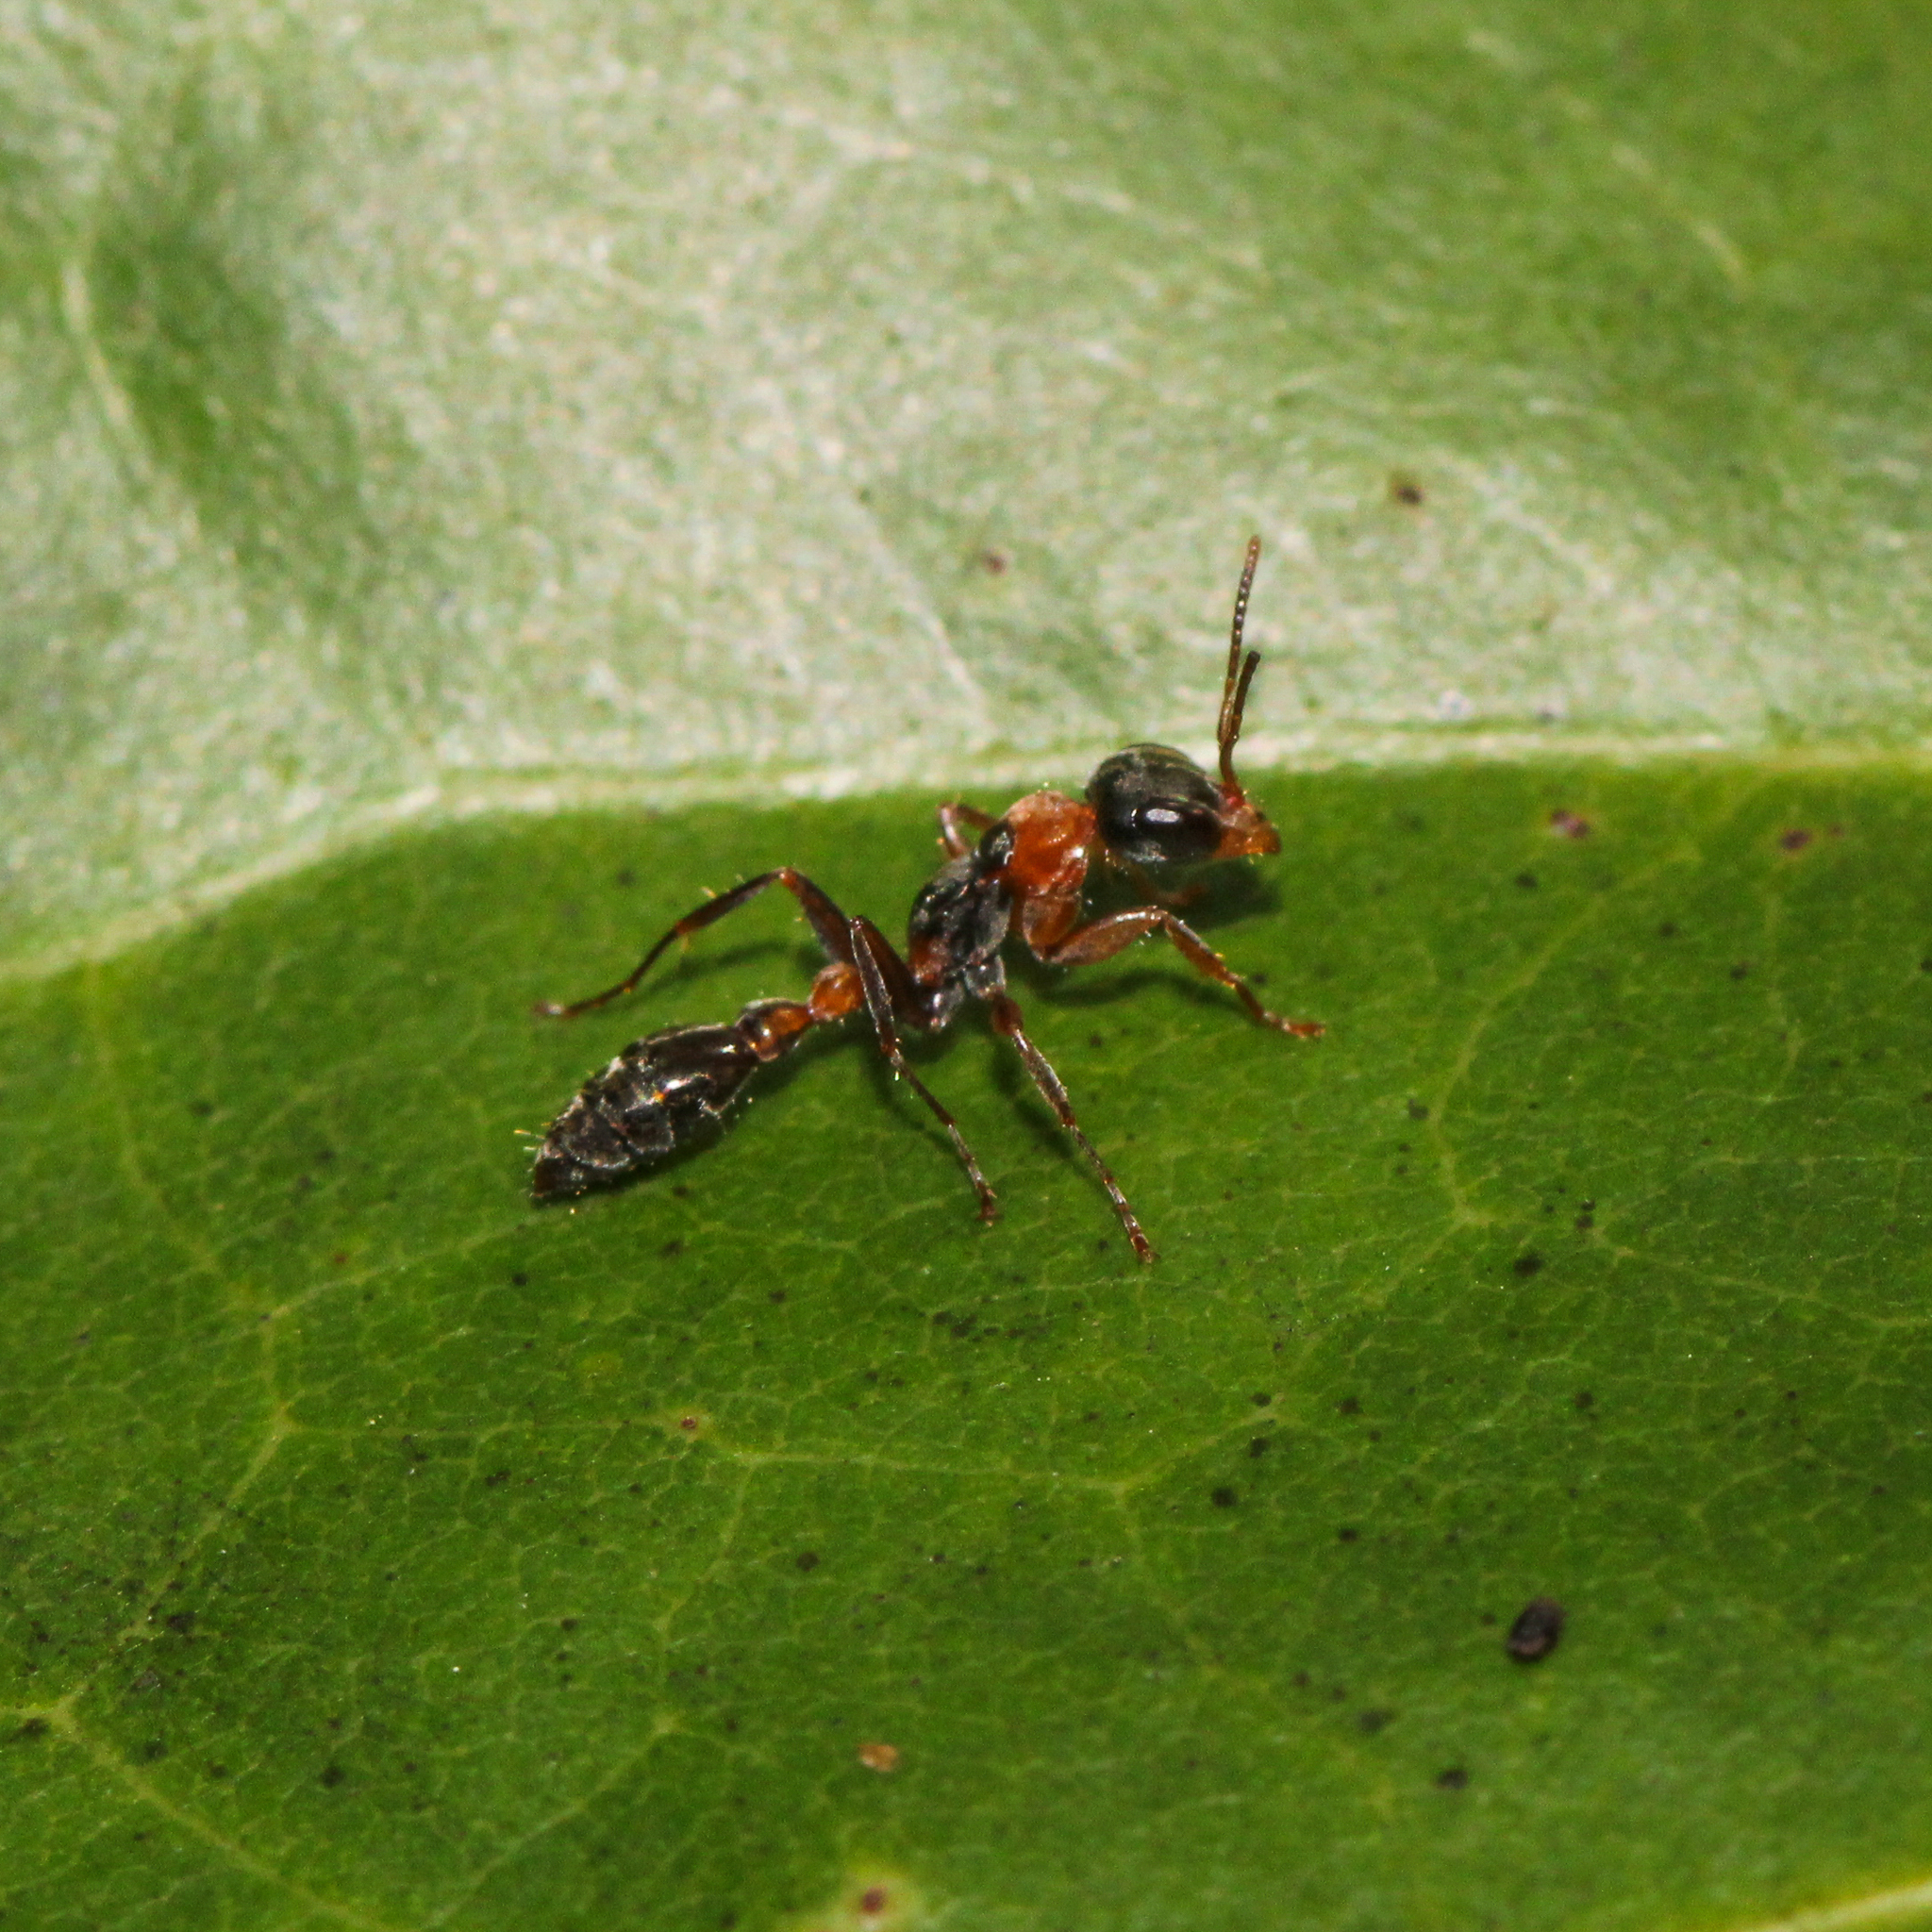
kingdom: Animalia
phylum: Arthropoda
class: Insecta
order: Hymenoptera
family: Formicidae
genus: Pseudomyrmex
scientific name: Pseudomyrmex gracilis
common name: Graceful twig ant
